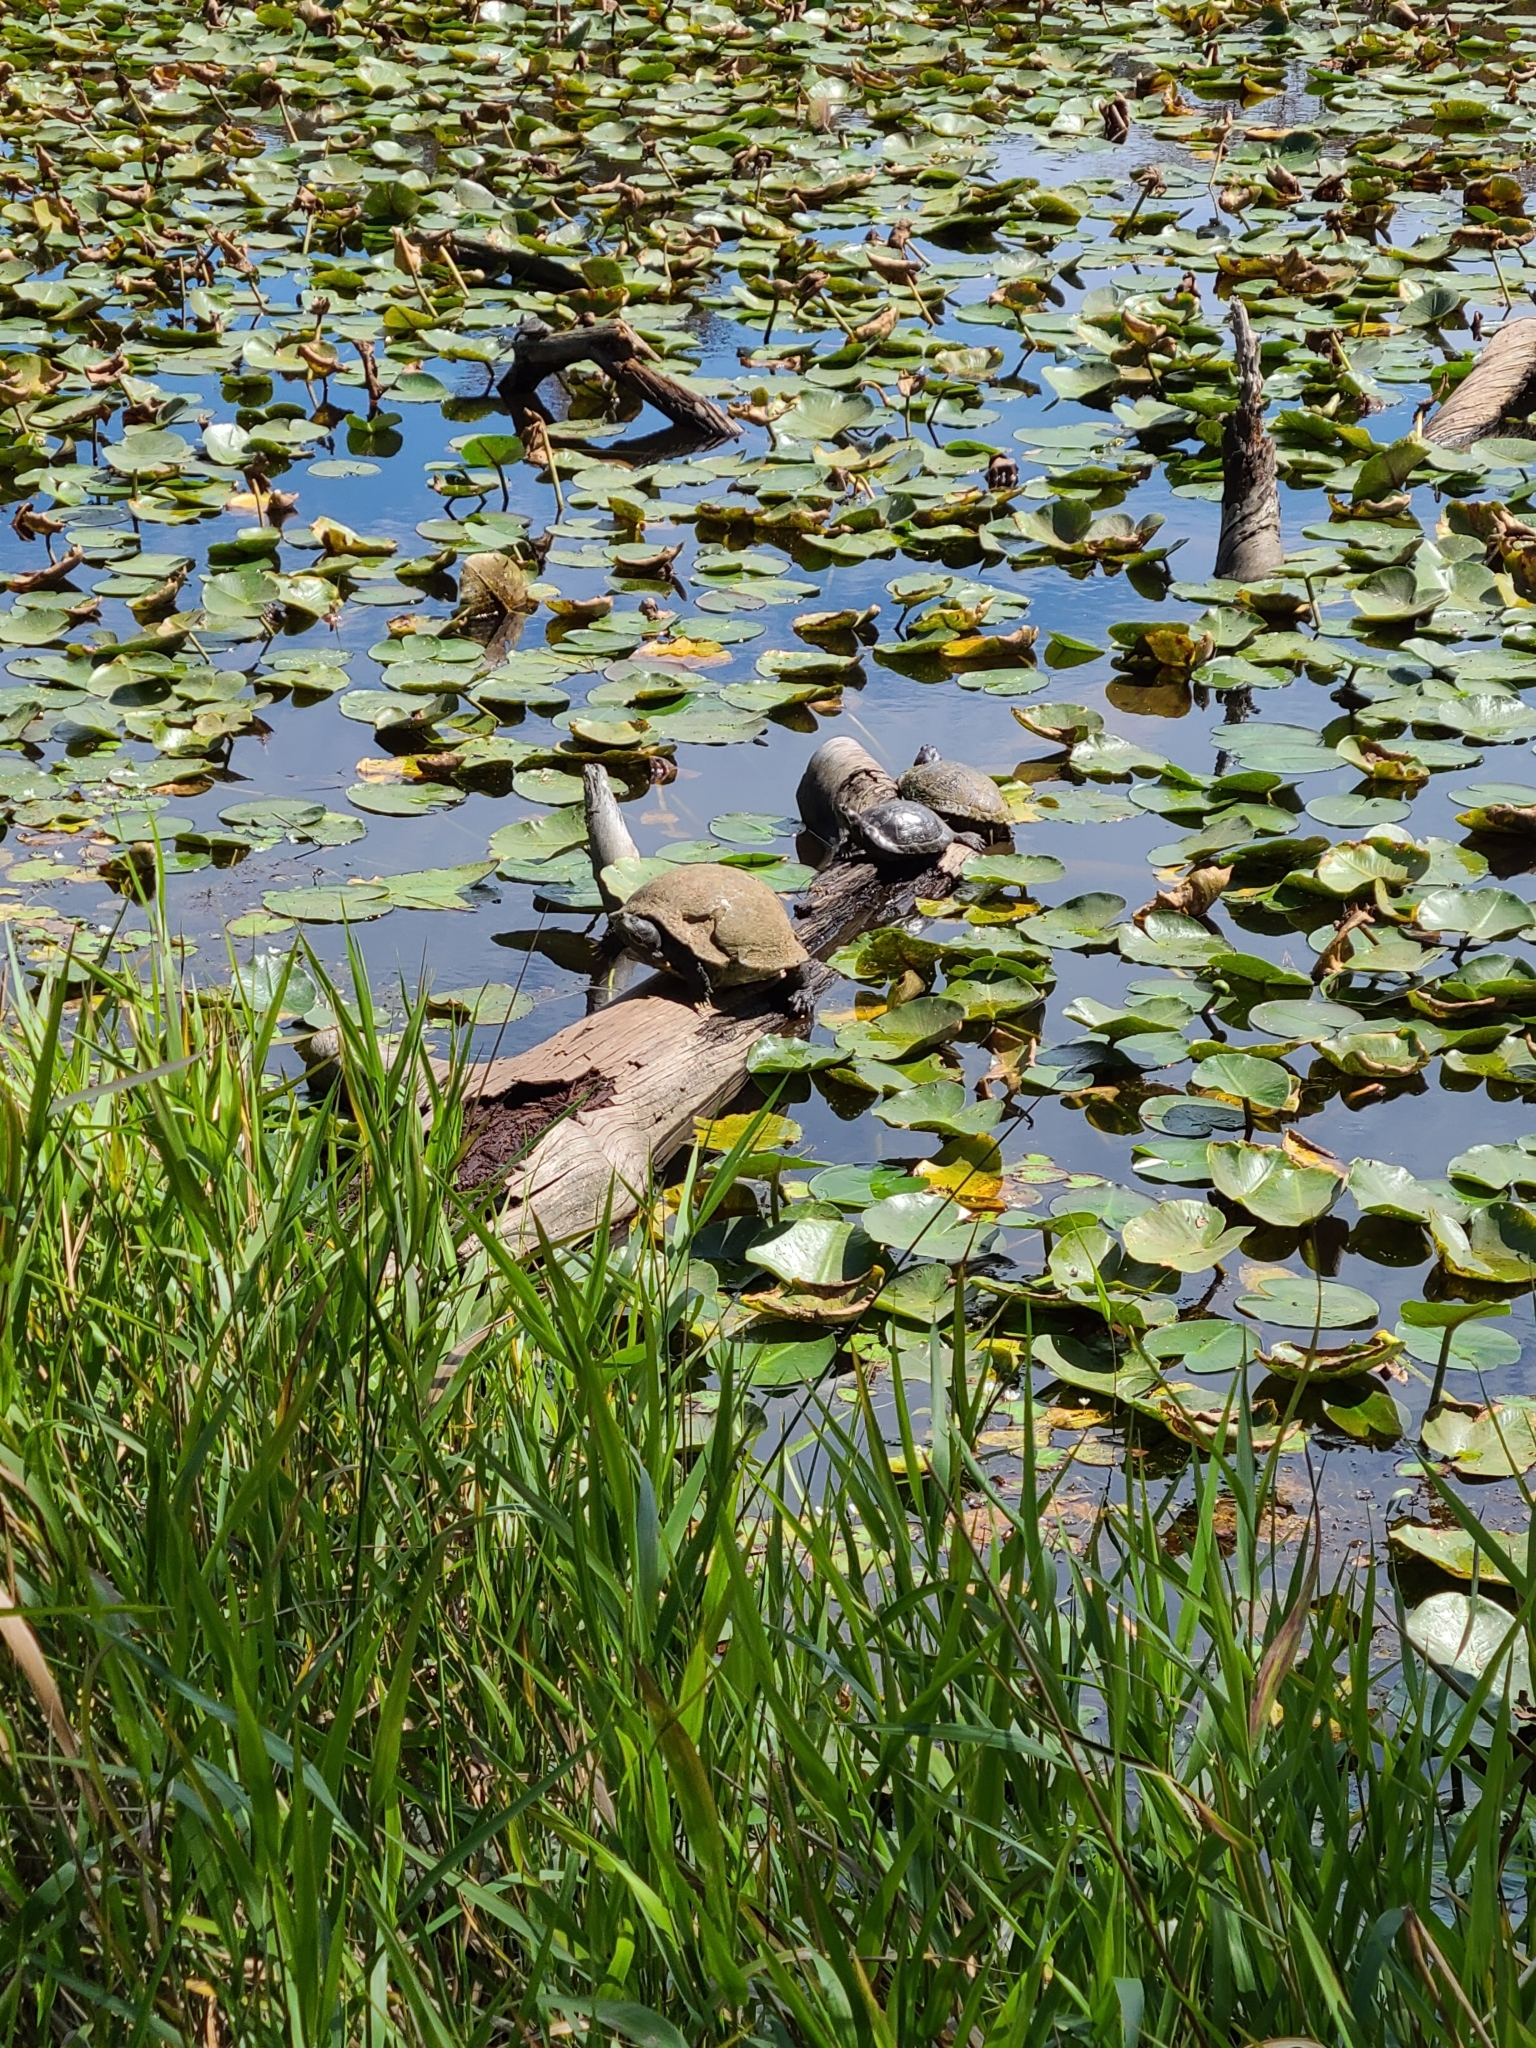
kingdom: Animalia
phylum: Chordata
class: Testudines
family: Emydidae
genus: Trachemys
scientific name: Trachemys scripta
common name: Slider
